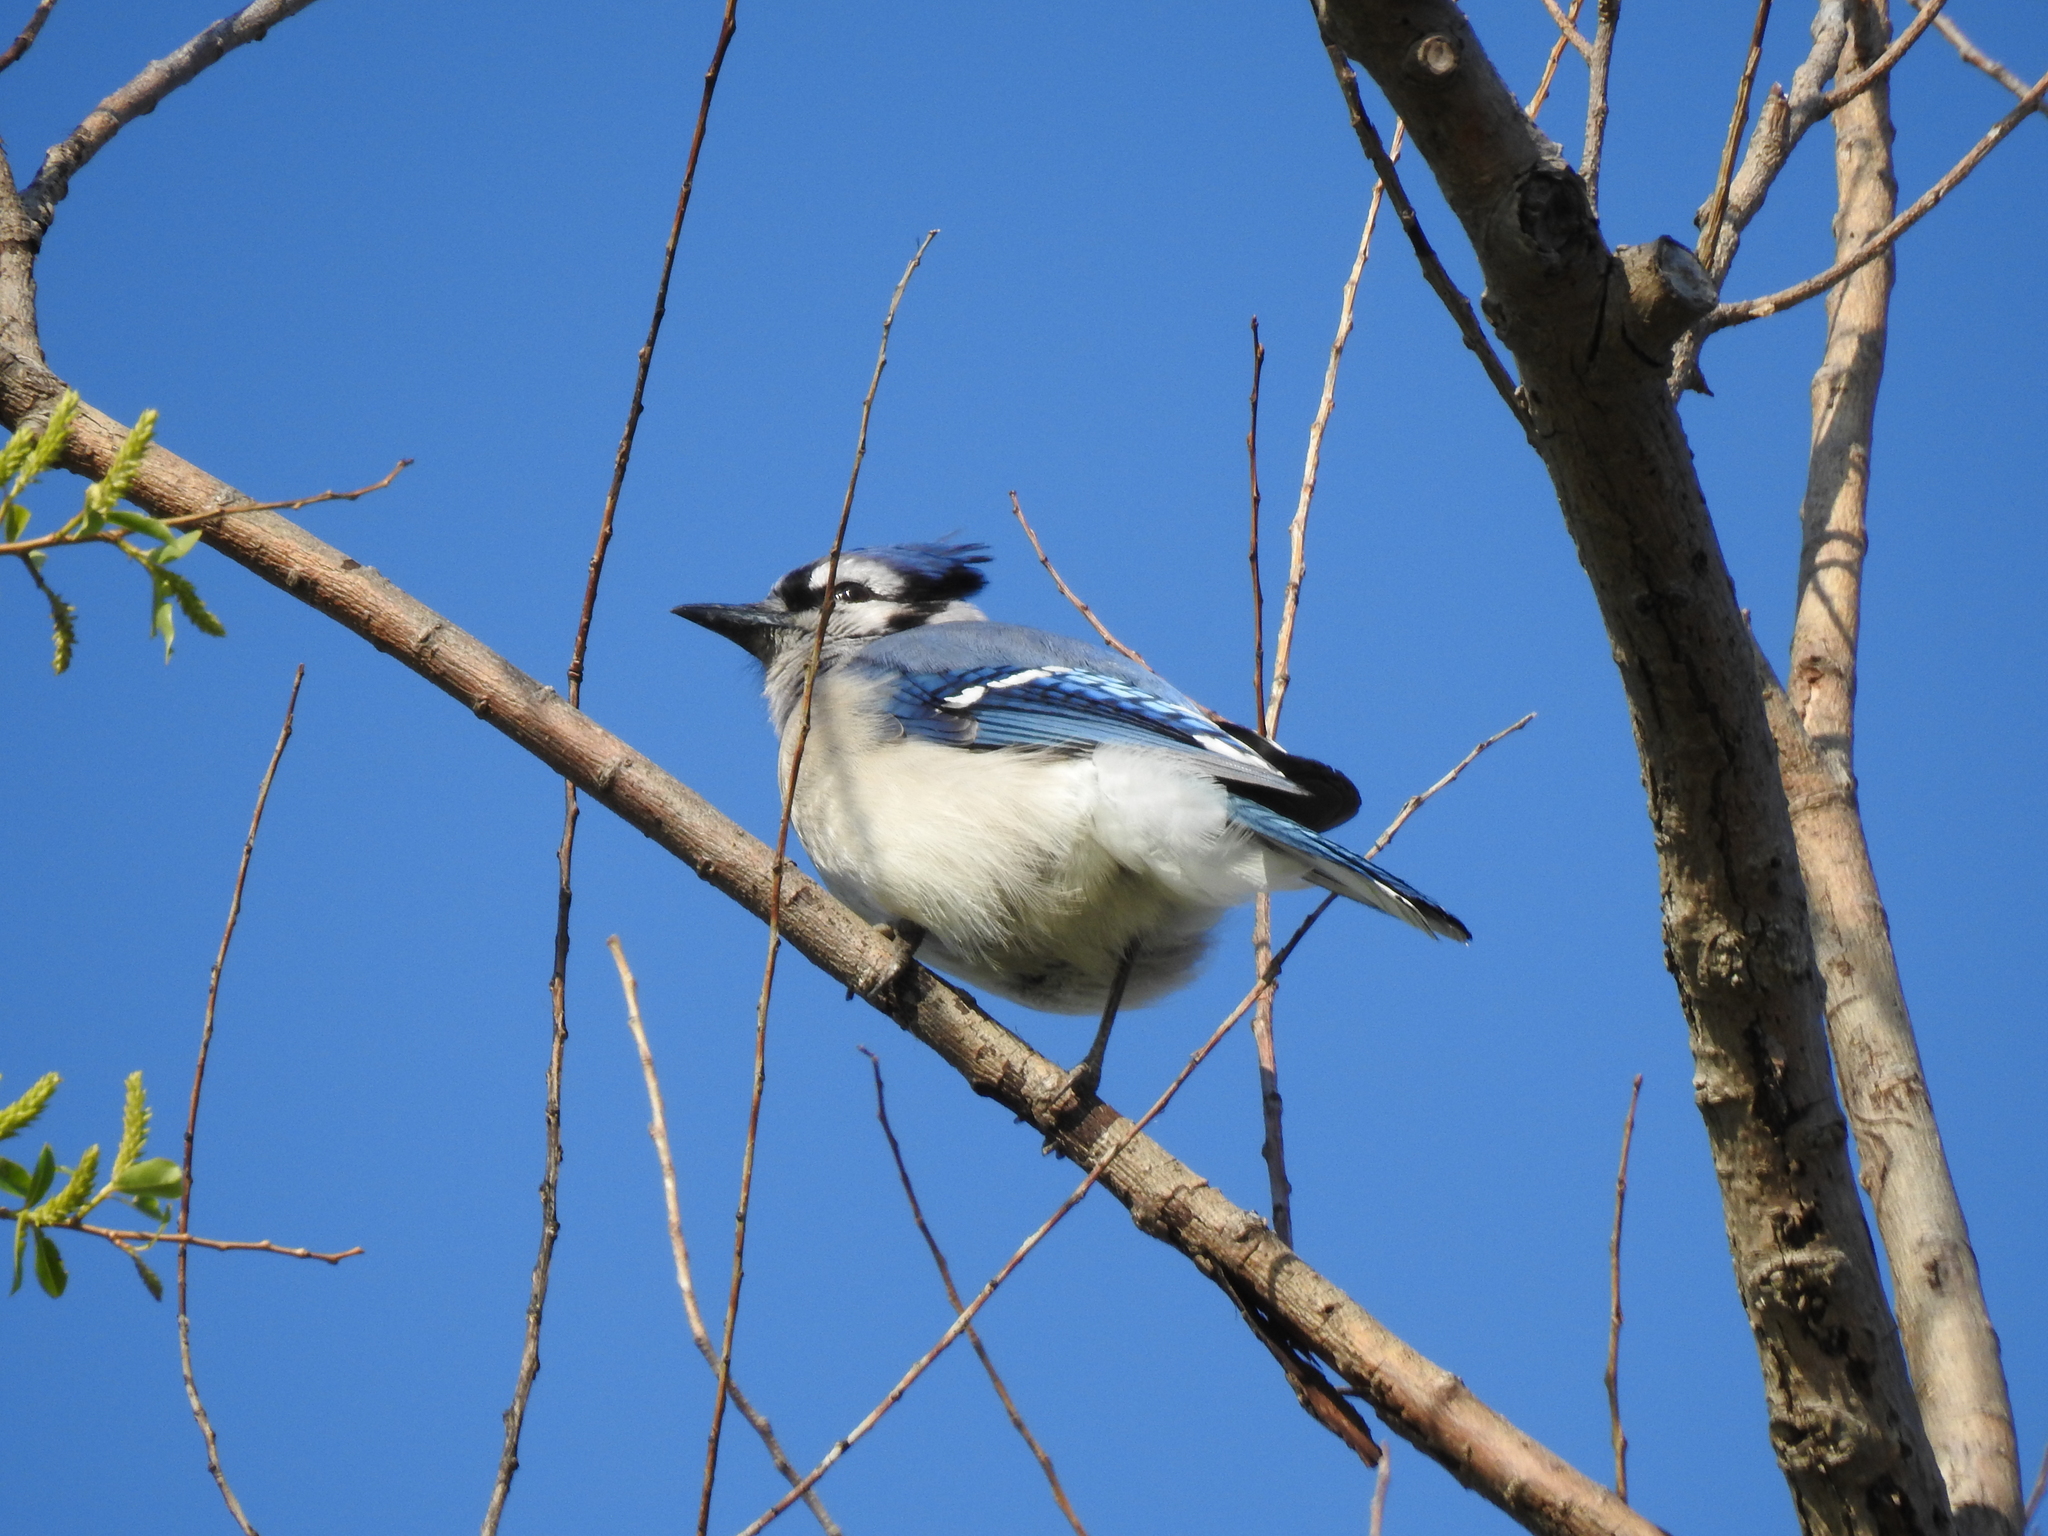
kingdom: Animalia
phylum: Chordata
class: Aves
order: Passeriformes
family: Corvidae
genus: Cyanocitta
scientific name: Cyanocitta cristata
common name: Blue jay
